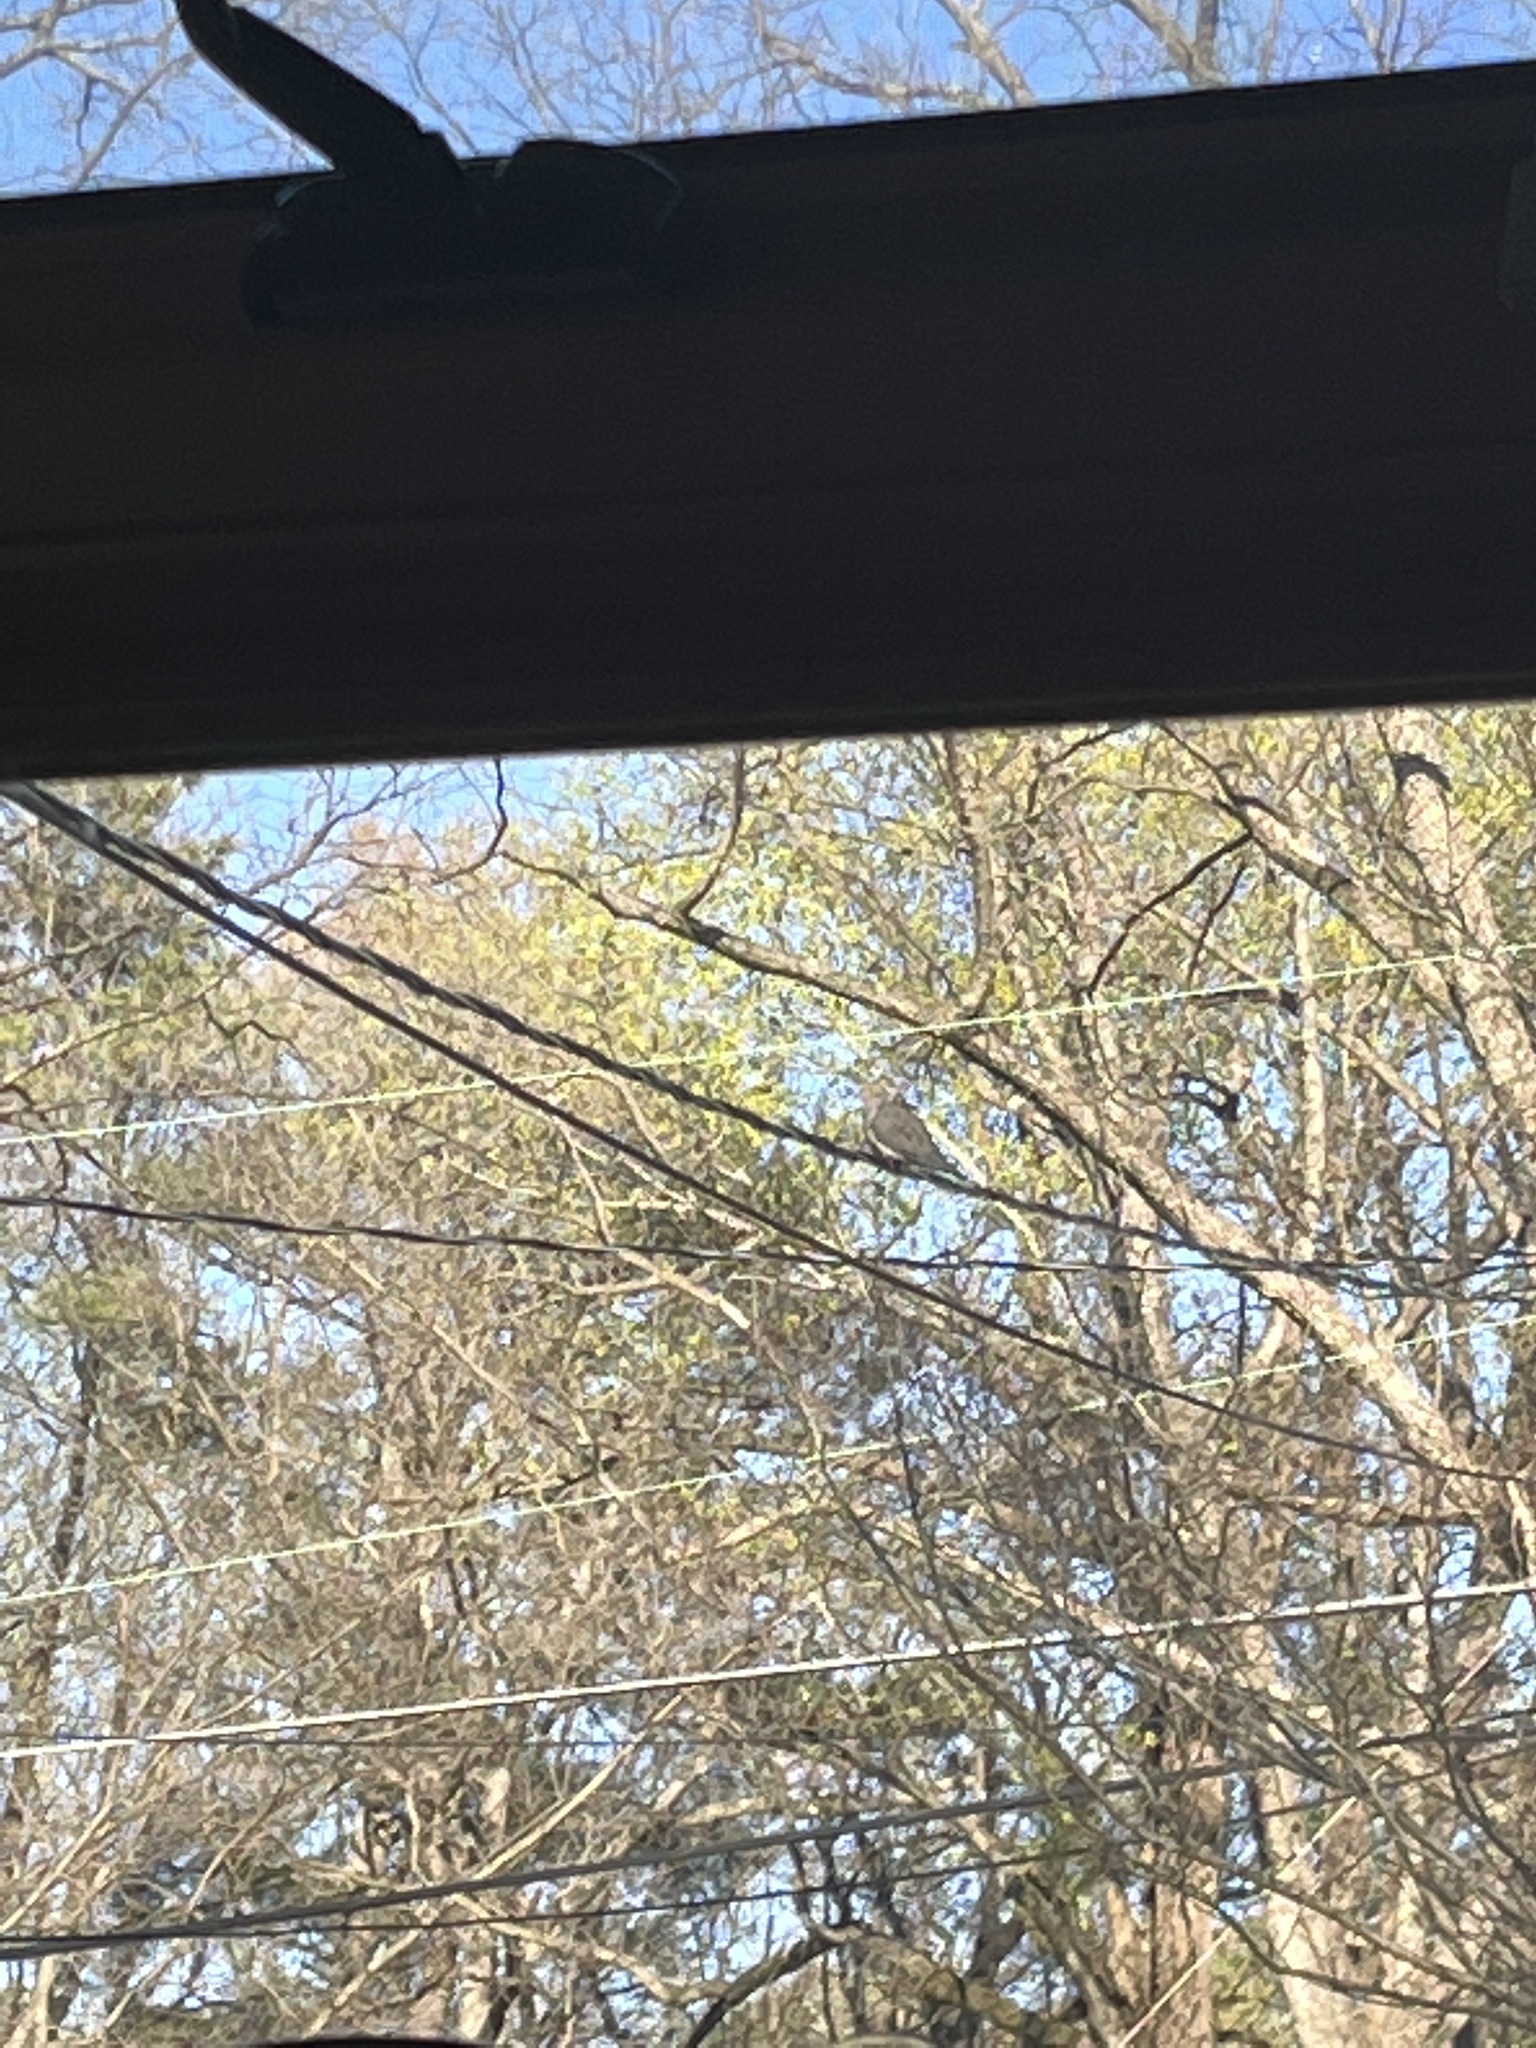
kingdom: Animalia
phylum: Chordata
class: Aves
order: Columbiformes
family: Columbidae
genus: Zenaida
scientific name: Zenaida macroura
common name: Mourning dove
